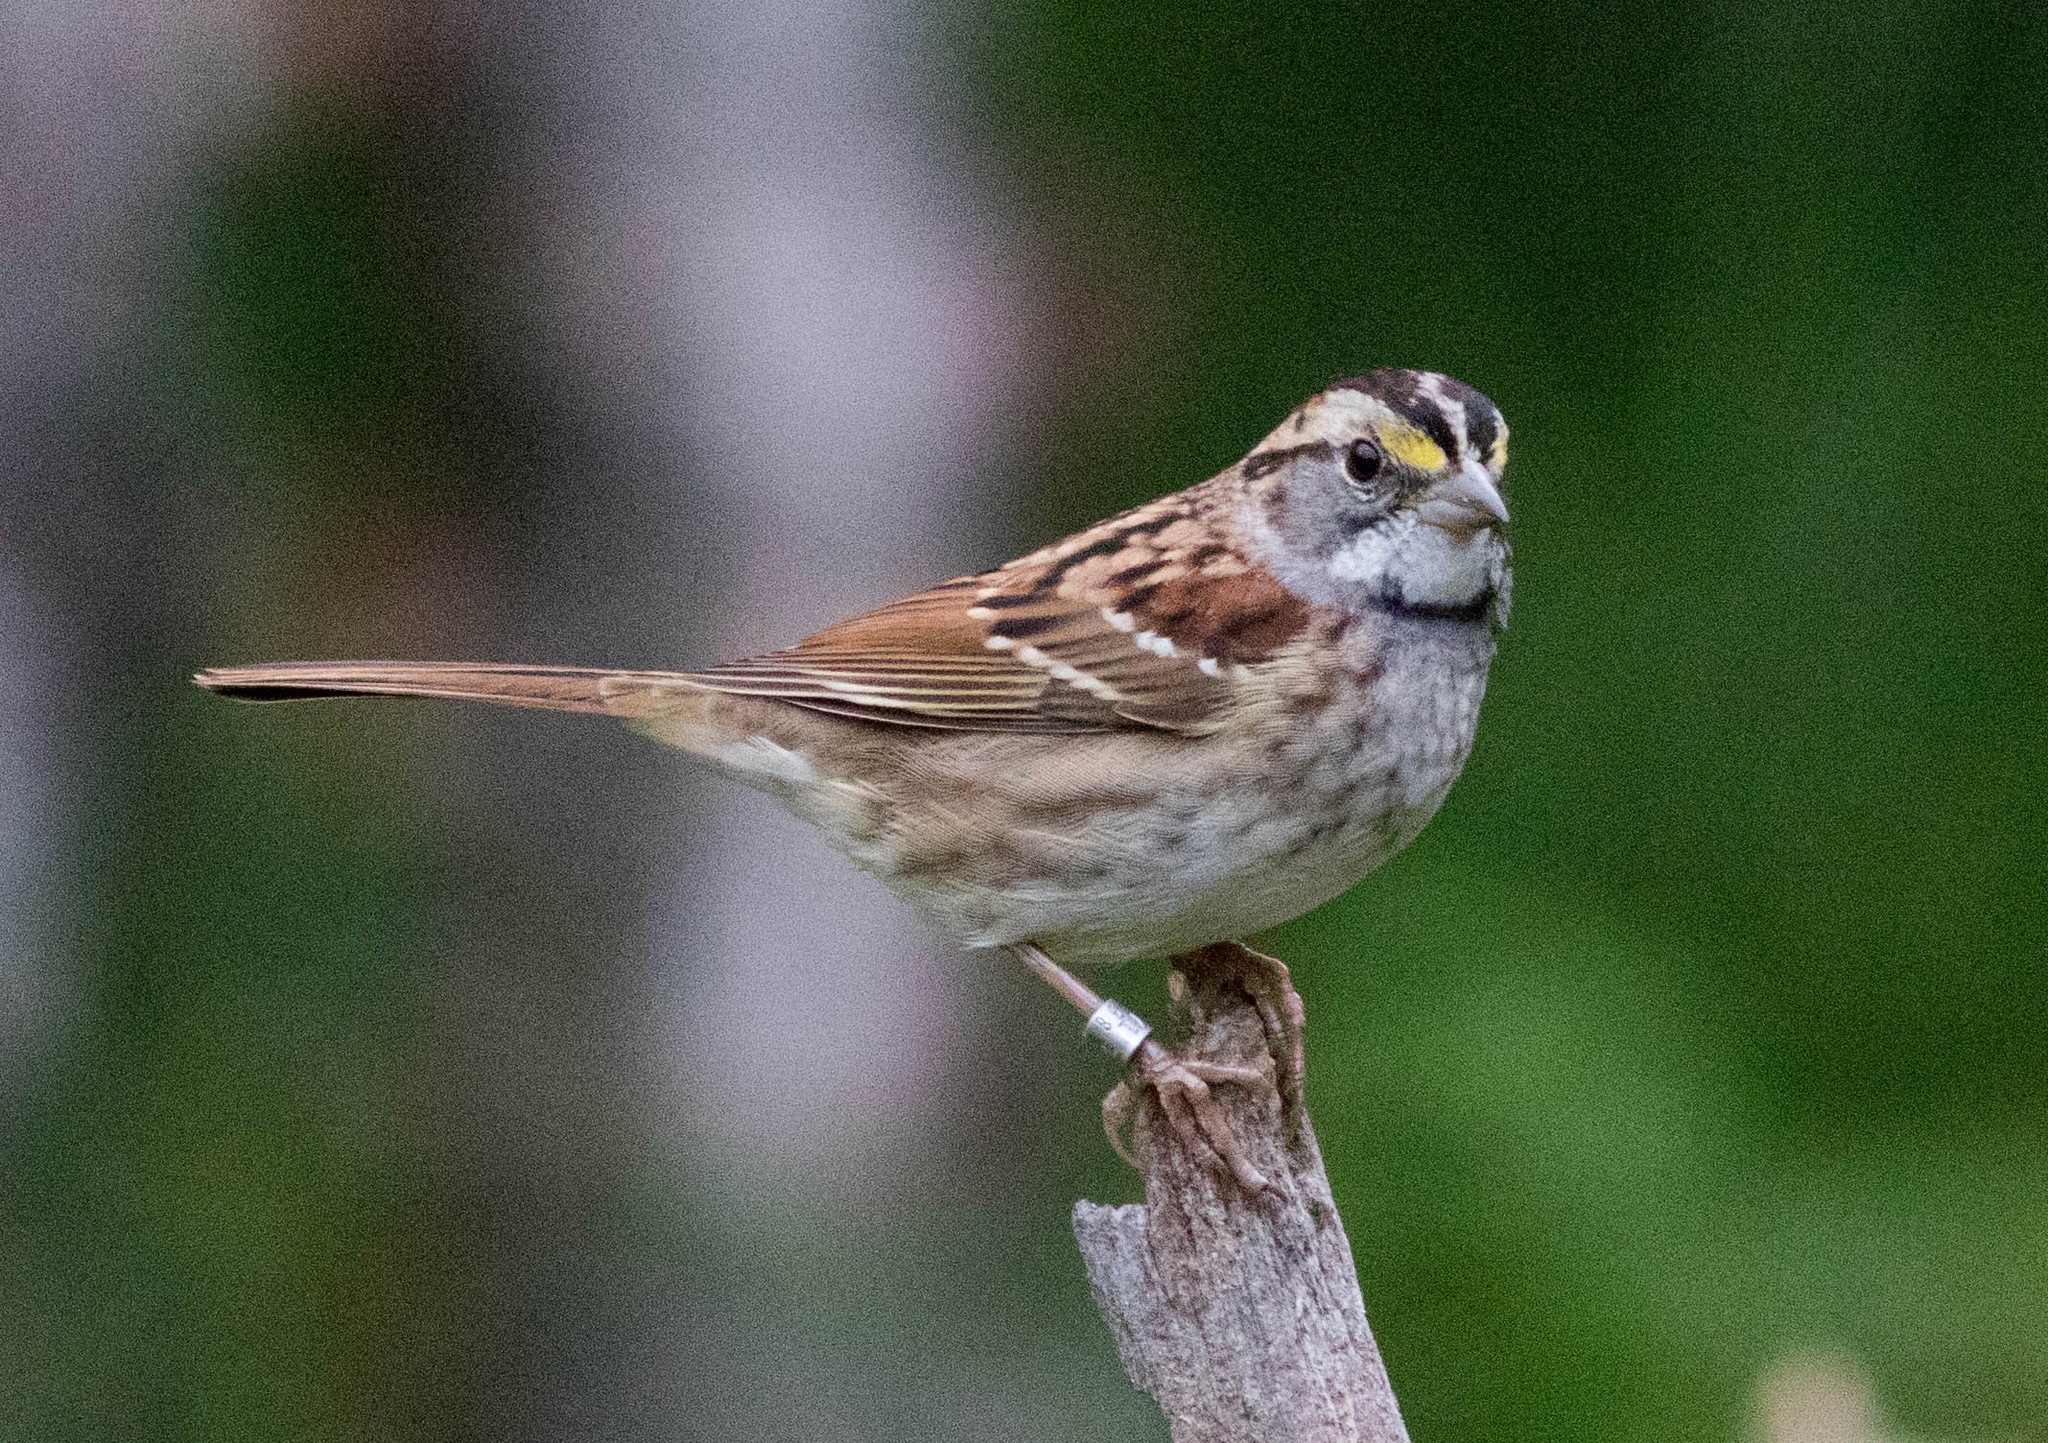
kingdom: Animalia
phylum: Chordata
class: Aves
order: Passeriformes
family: Passerellidae
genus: Zonotrichia
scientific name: Zonotrichia albicollis
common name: White-throated sparrow
